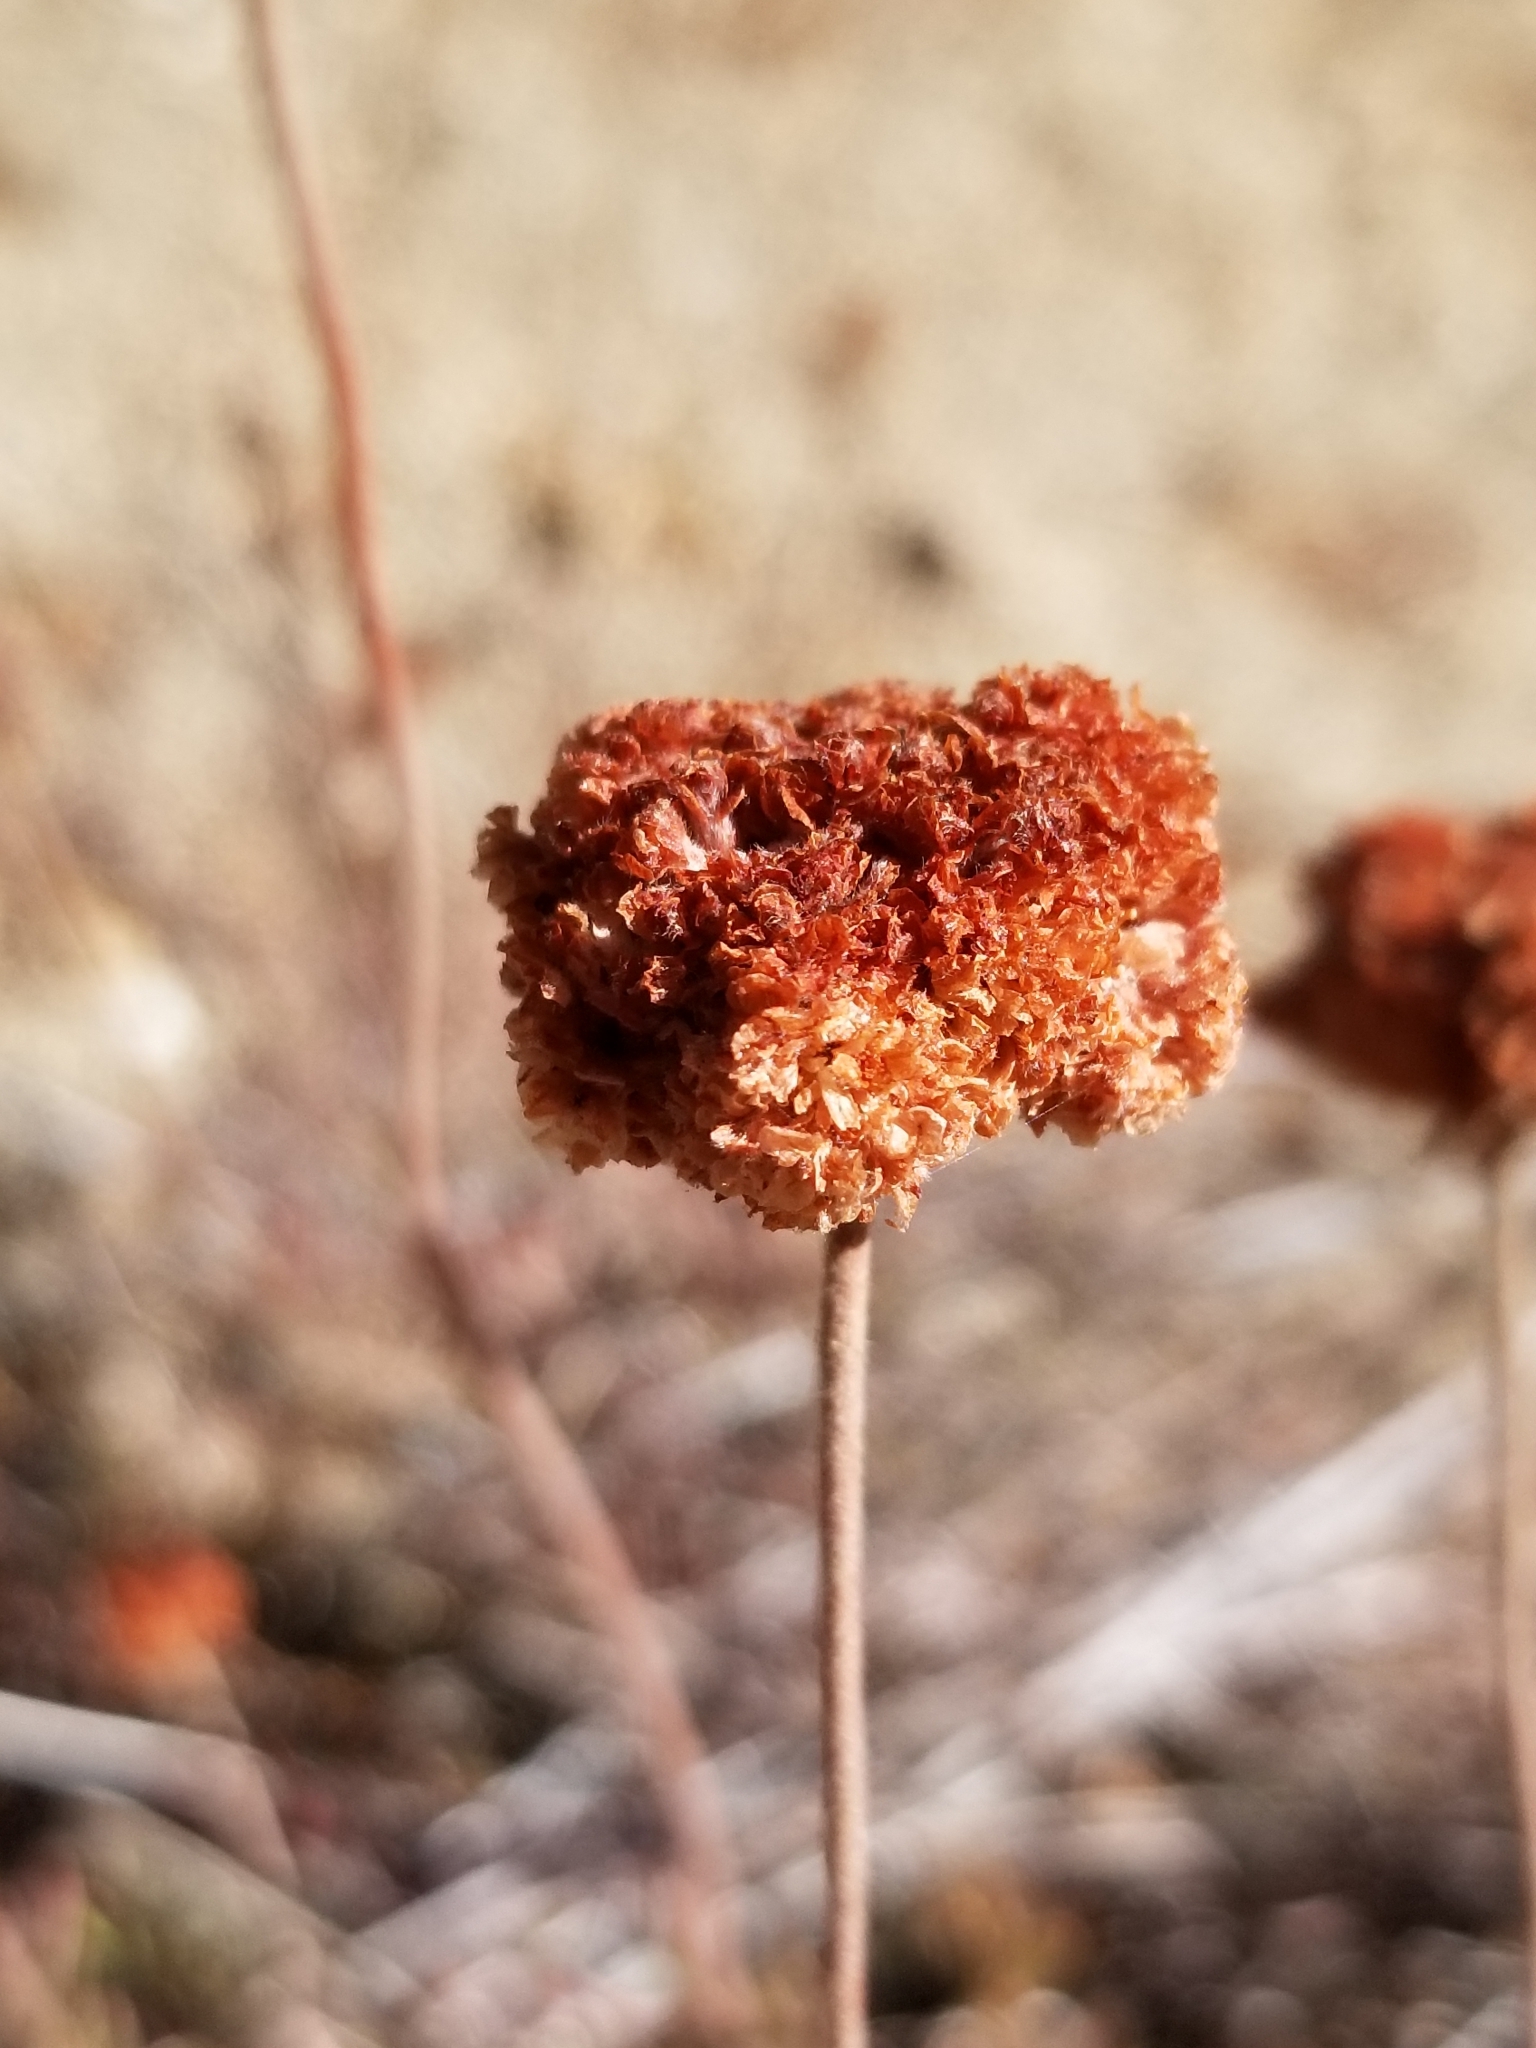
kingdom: Plantae
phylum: Tracheophyta
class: Magnoliopsida
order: Caryophyllales
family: Polygonaceae
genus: Eriogonum
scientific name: Eriogonum fasciculatum
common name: California wild buckwheat
